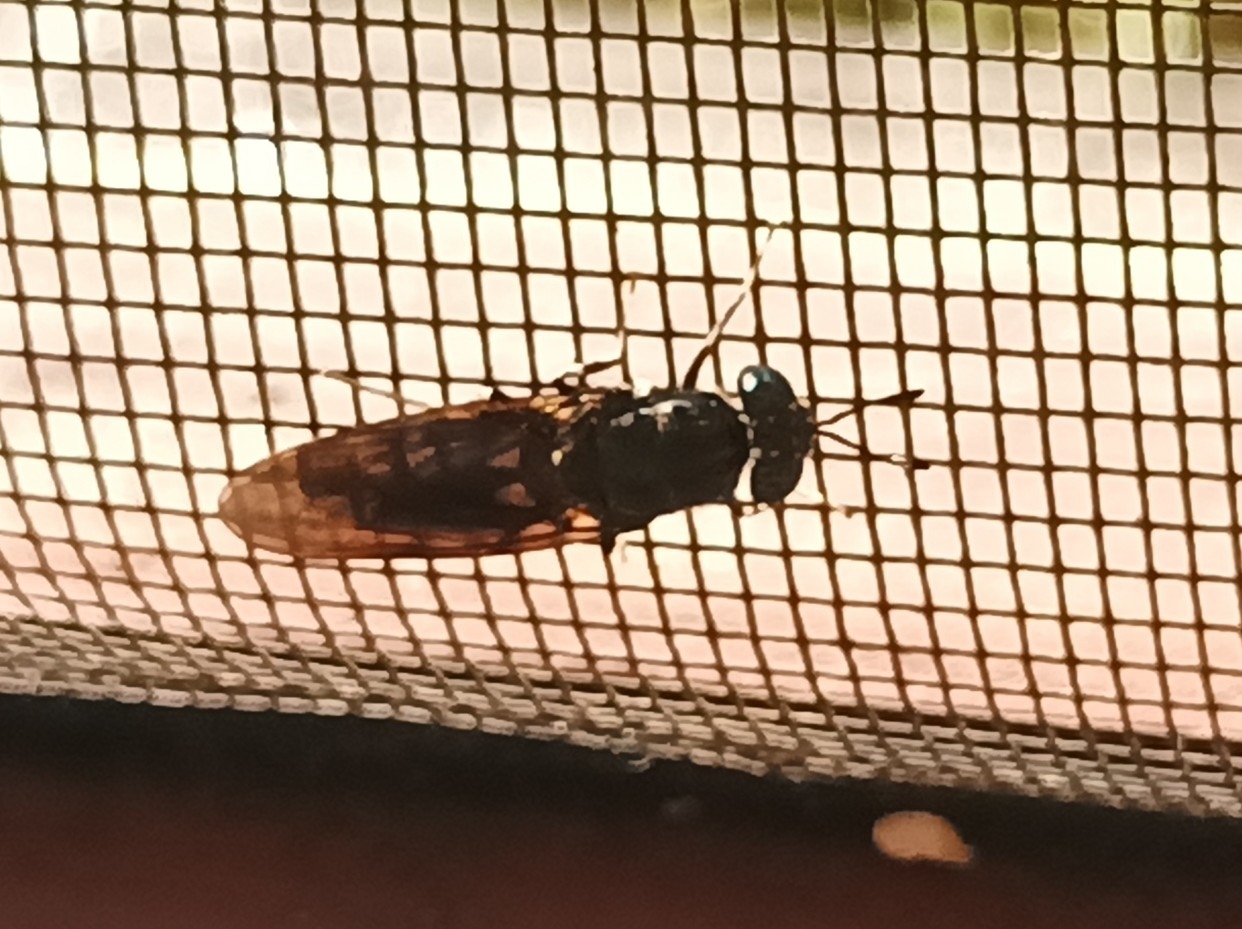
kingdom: Animalia
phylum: Arthropoda
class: Insecta
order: Diptera
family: Stratiomyidae
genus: Hermetia
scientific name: Hermetia illucens
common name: Black soldier fly
